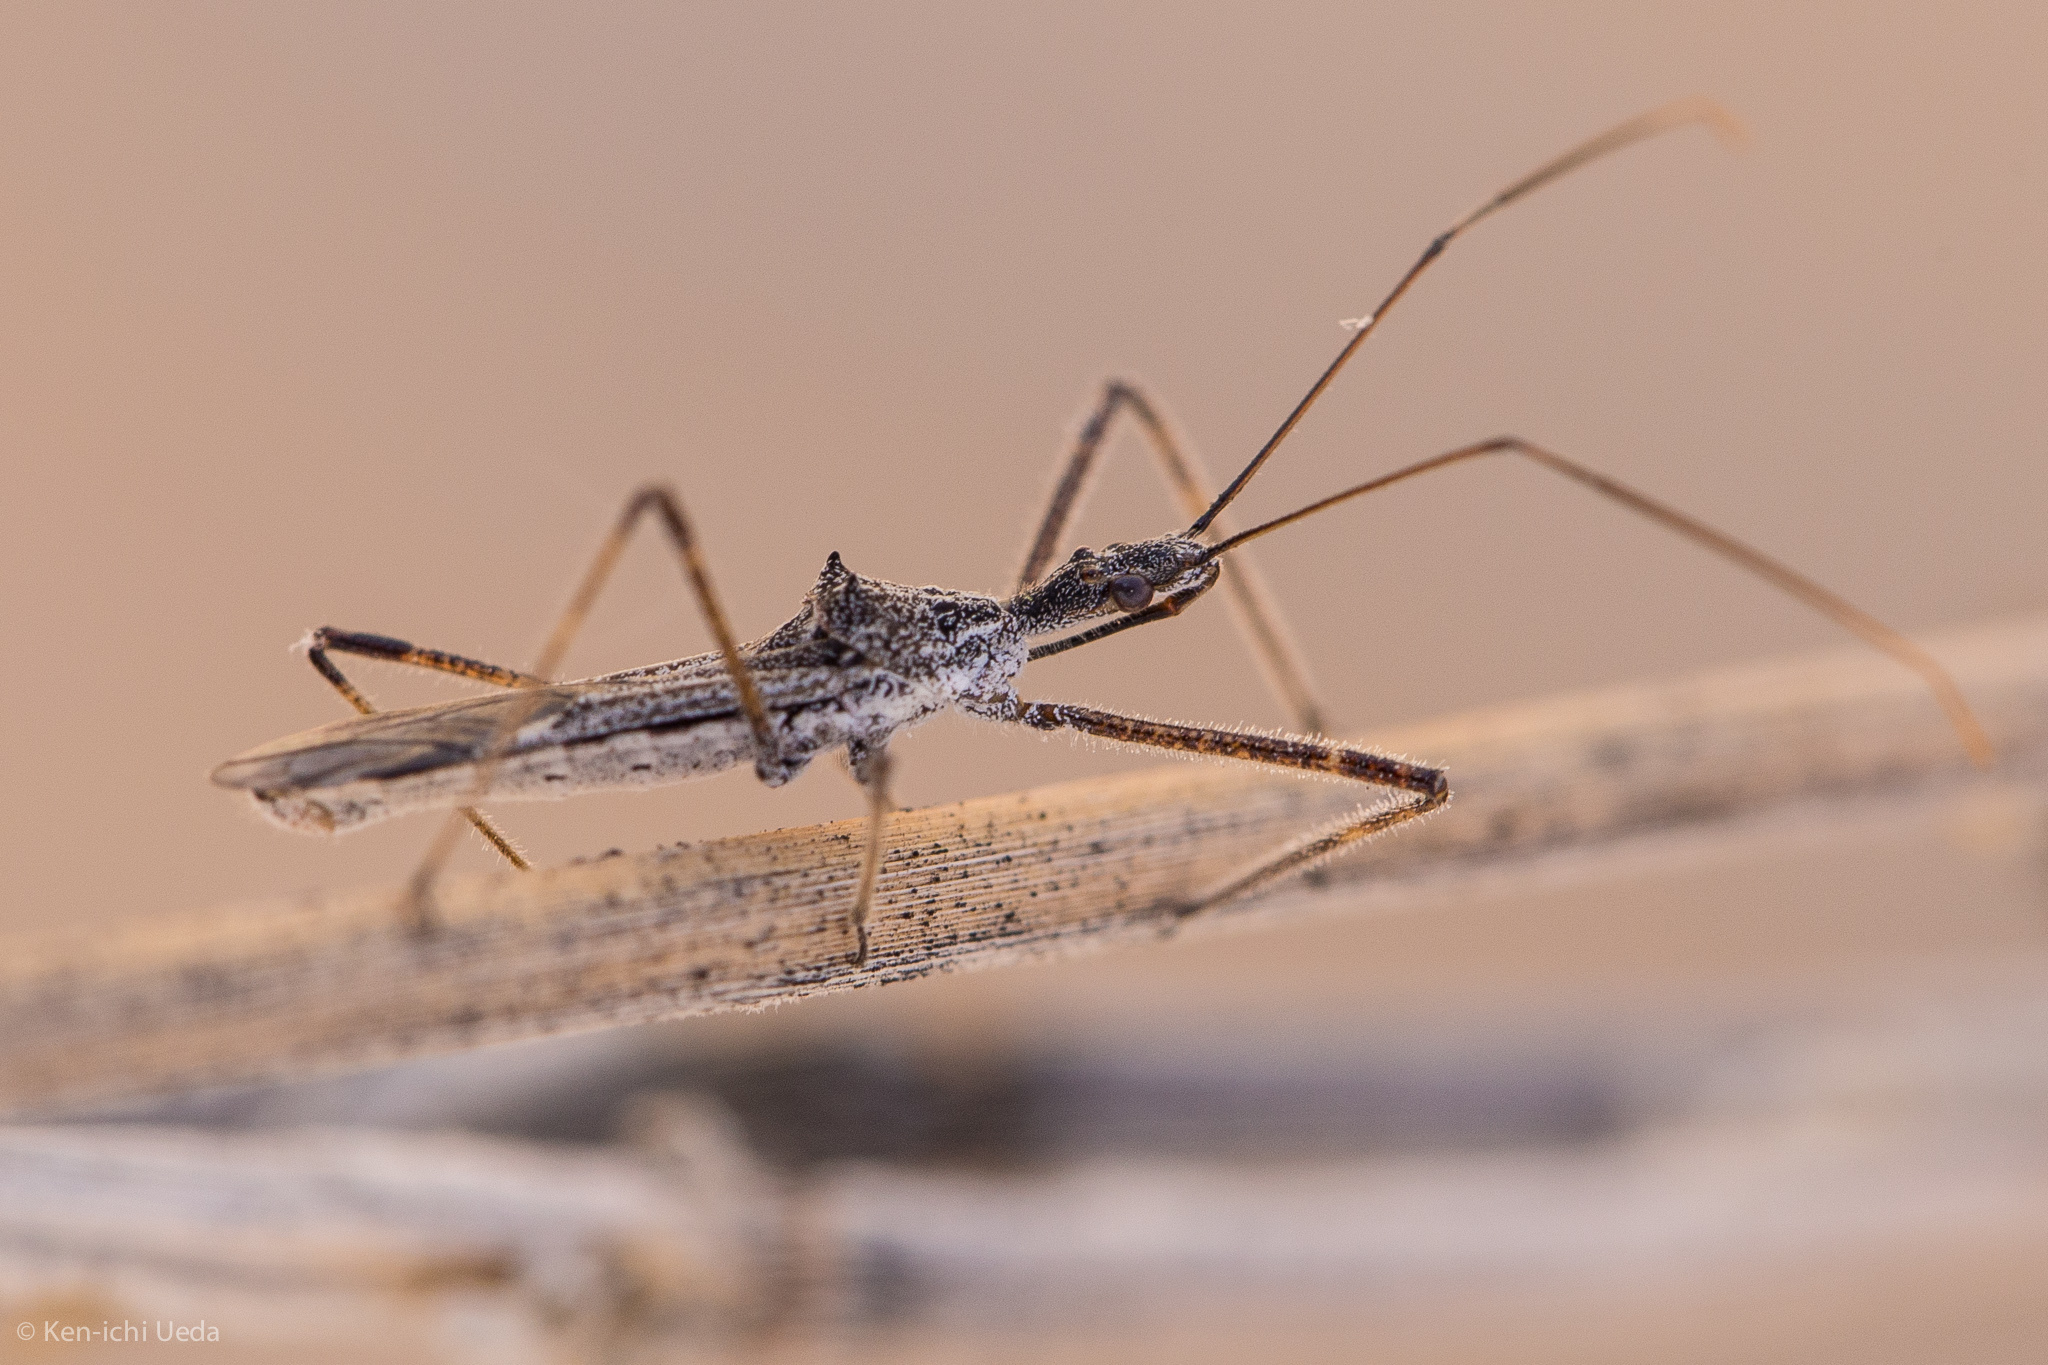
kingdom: Animalia
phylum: Arthropoda
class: Insecta
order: Hemiptera
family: Reduviidae
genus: Zelus
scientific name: Zelus tetracanthus
